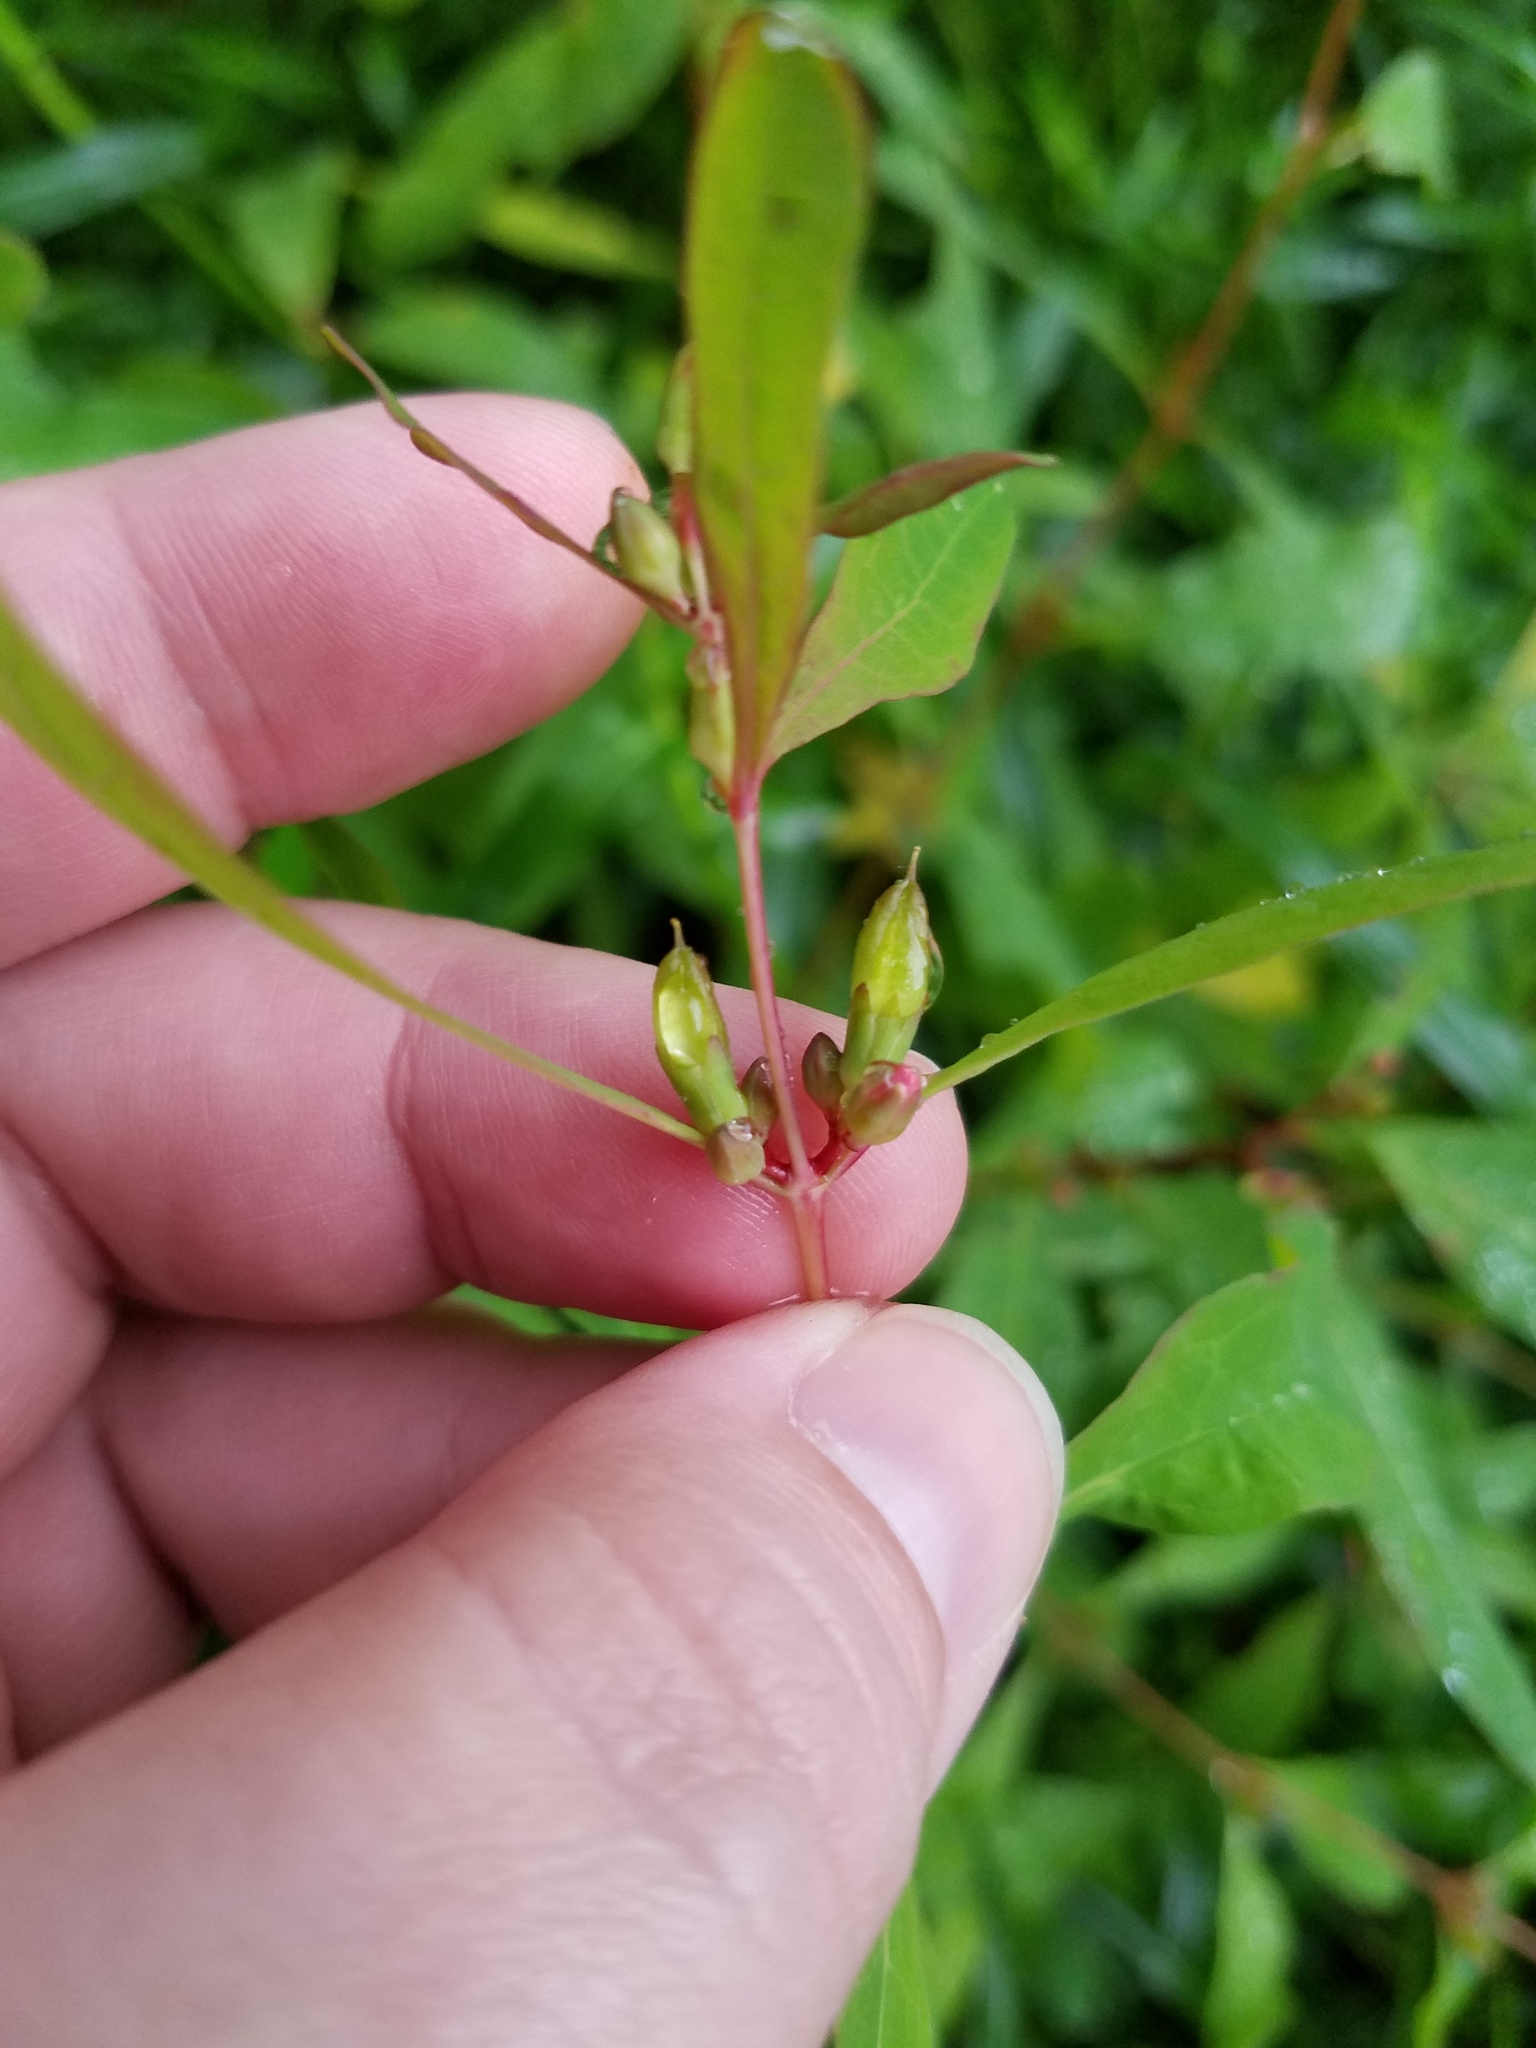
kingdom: Plantae
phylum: Tracheophyta
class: Magnoliopsida
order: Malpighiales
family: Hypericaceae
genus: Triadenum
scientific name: Triadenum walteri
